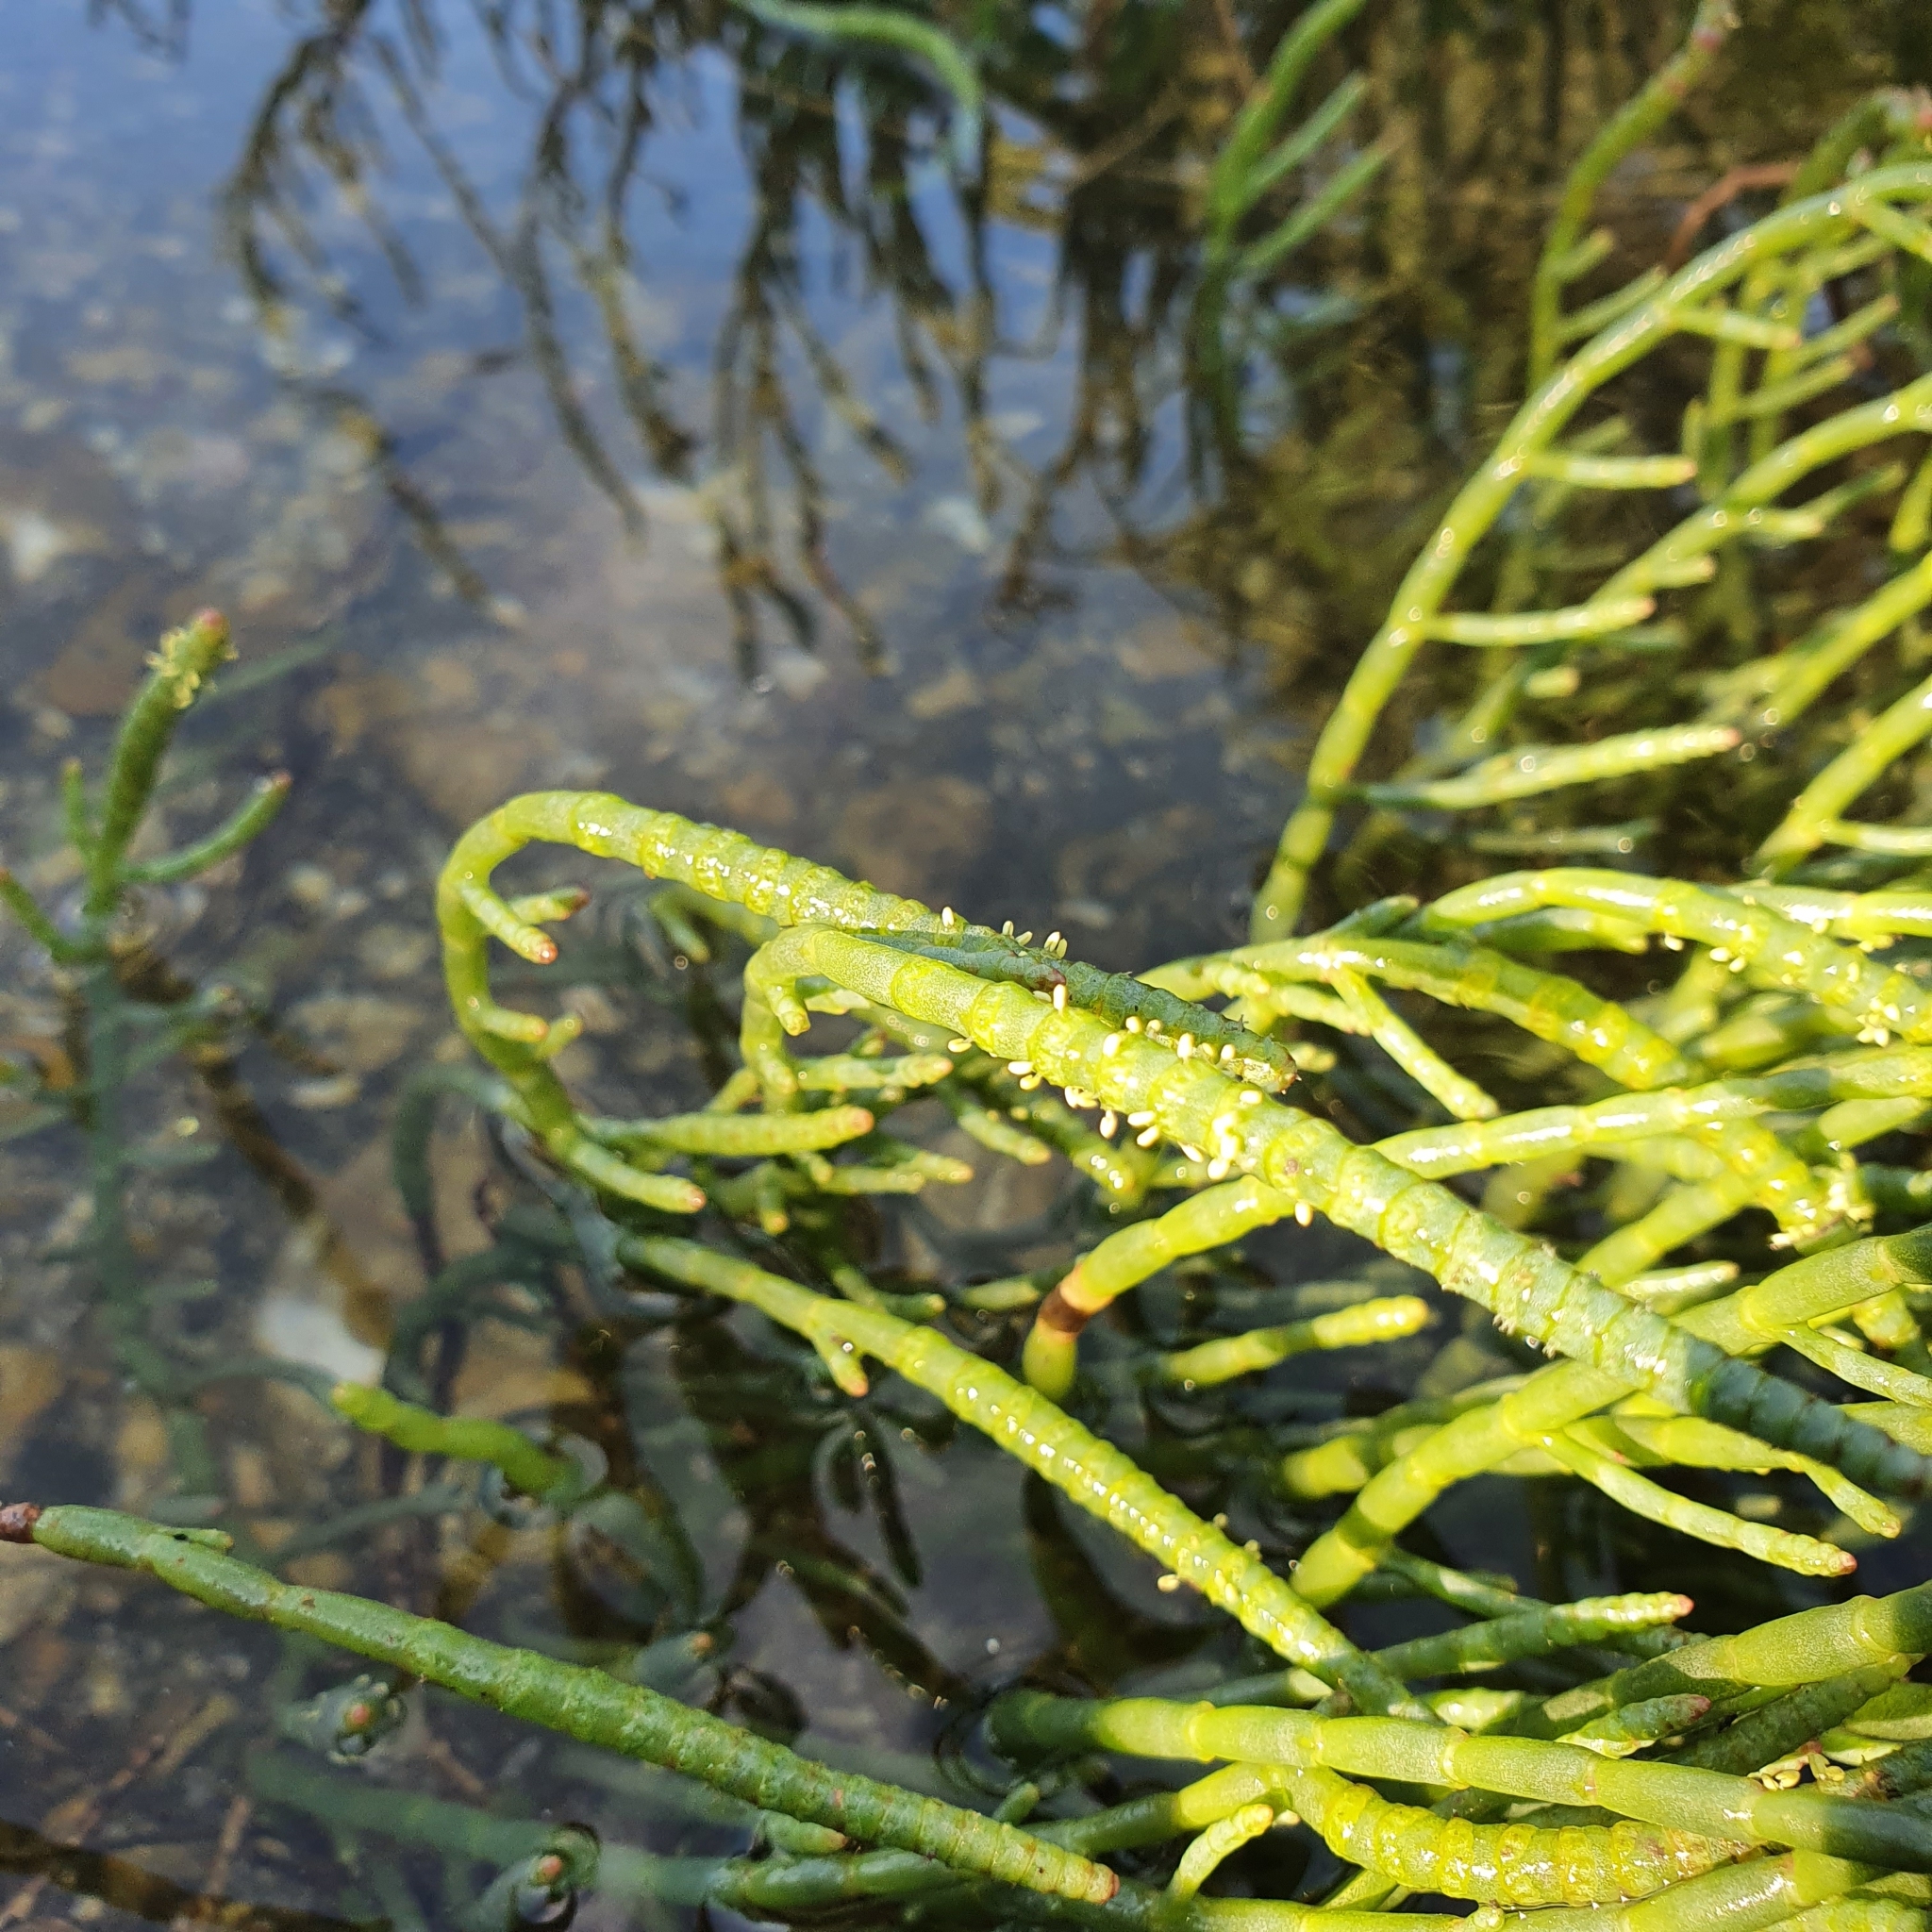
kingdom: Plantae
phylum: Tracheophyta
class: Magnoliopsida
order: Caryophyllales
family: Amaranthaceae
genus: Salicornia
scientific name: Salicornia quinqueflora
